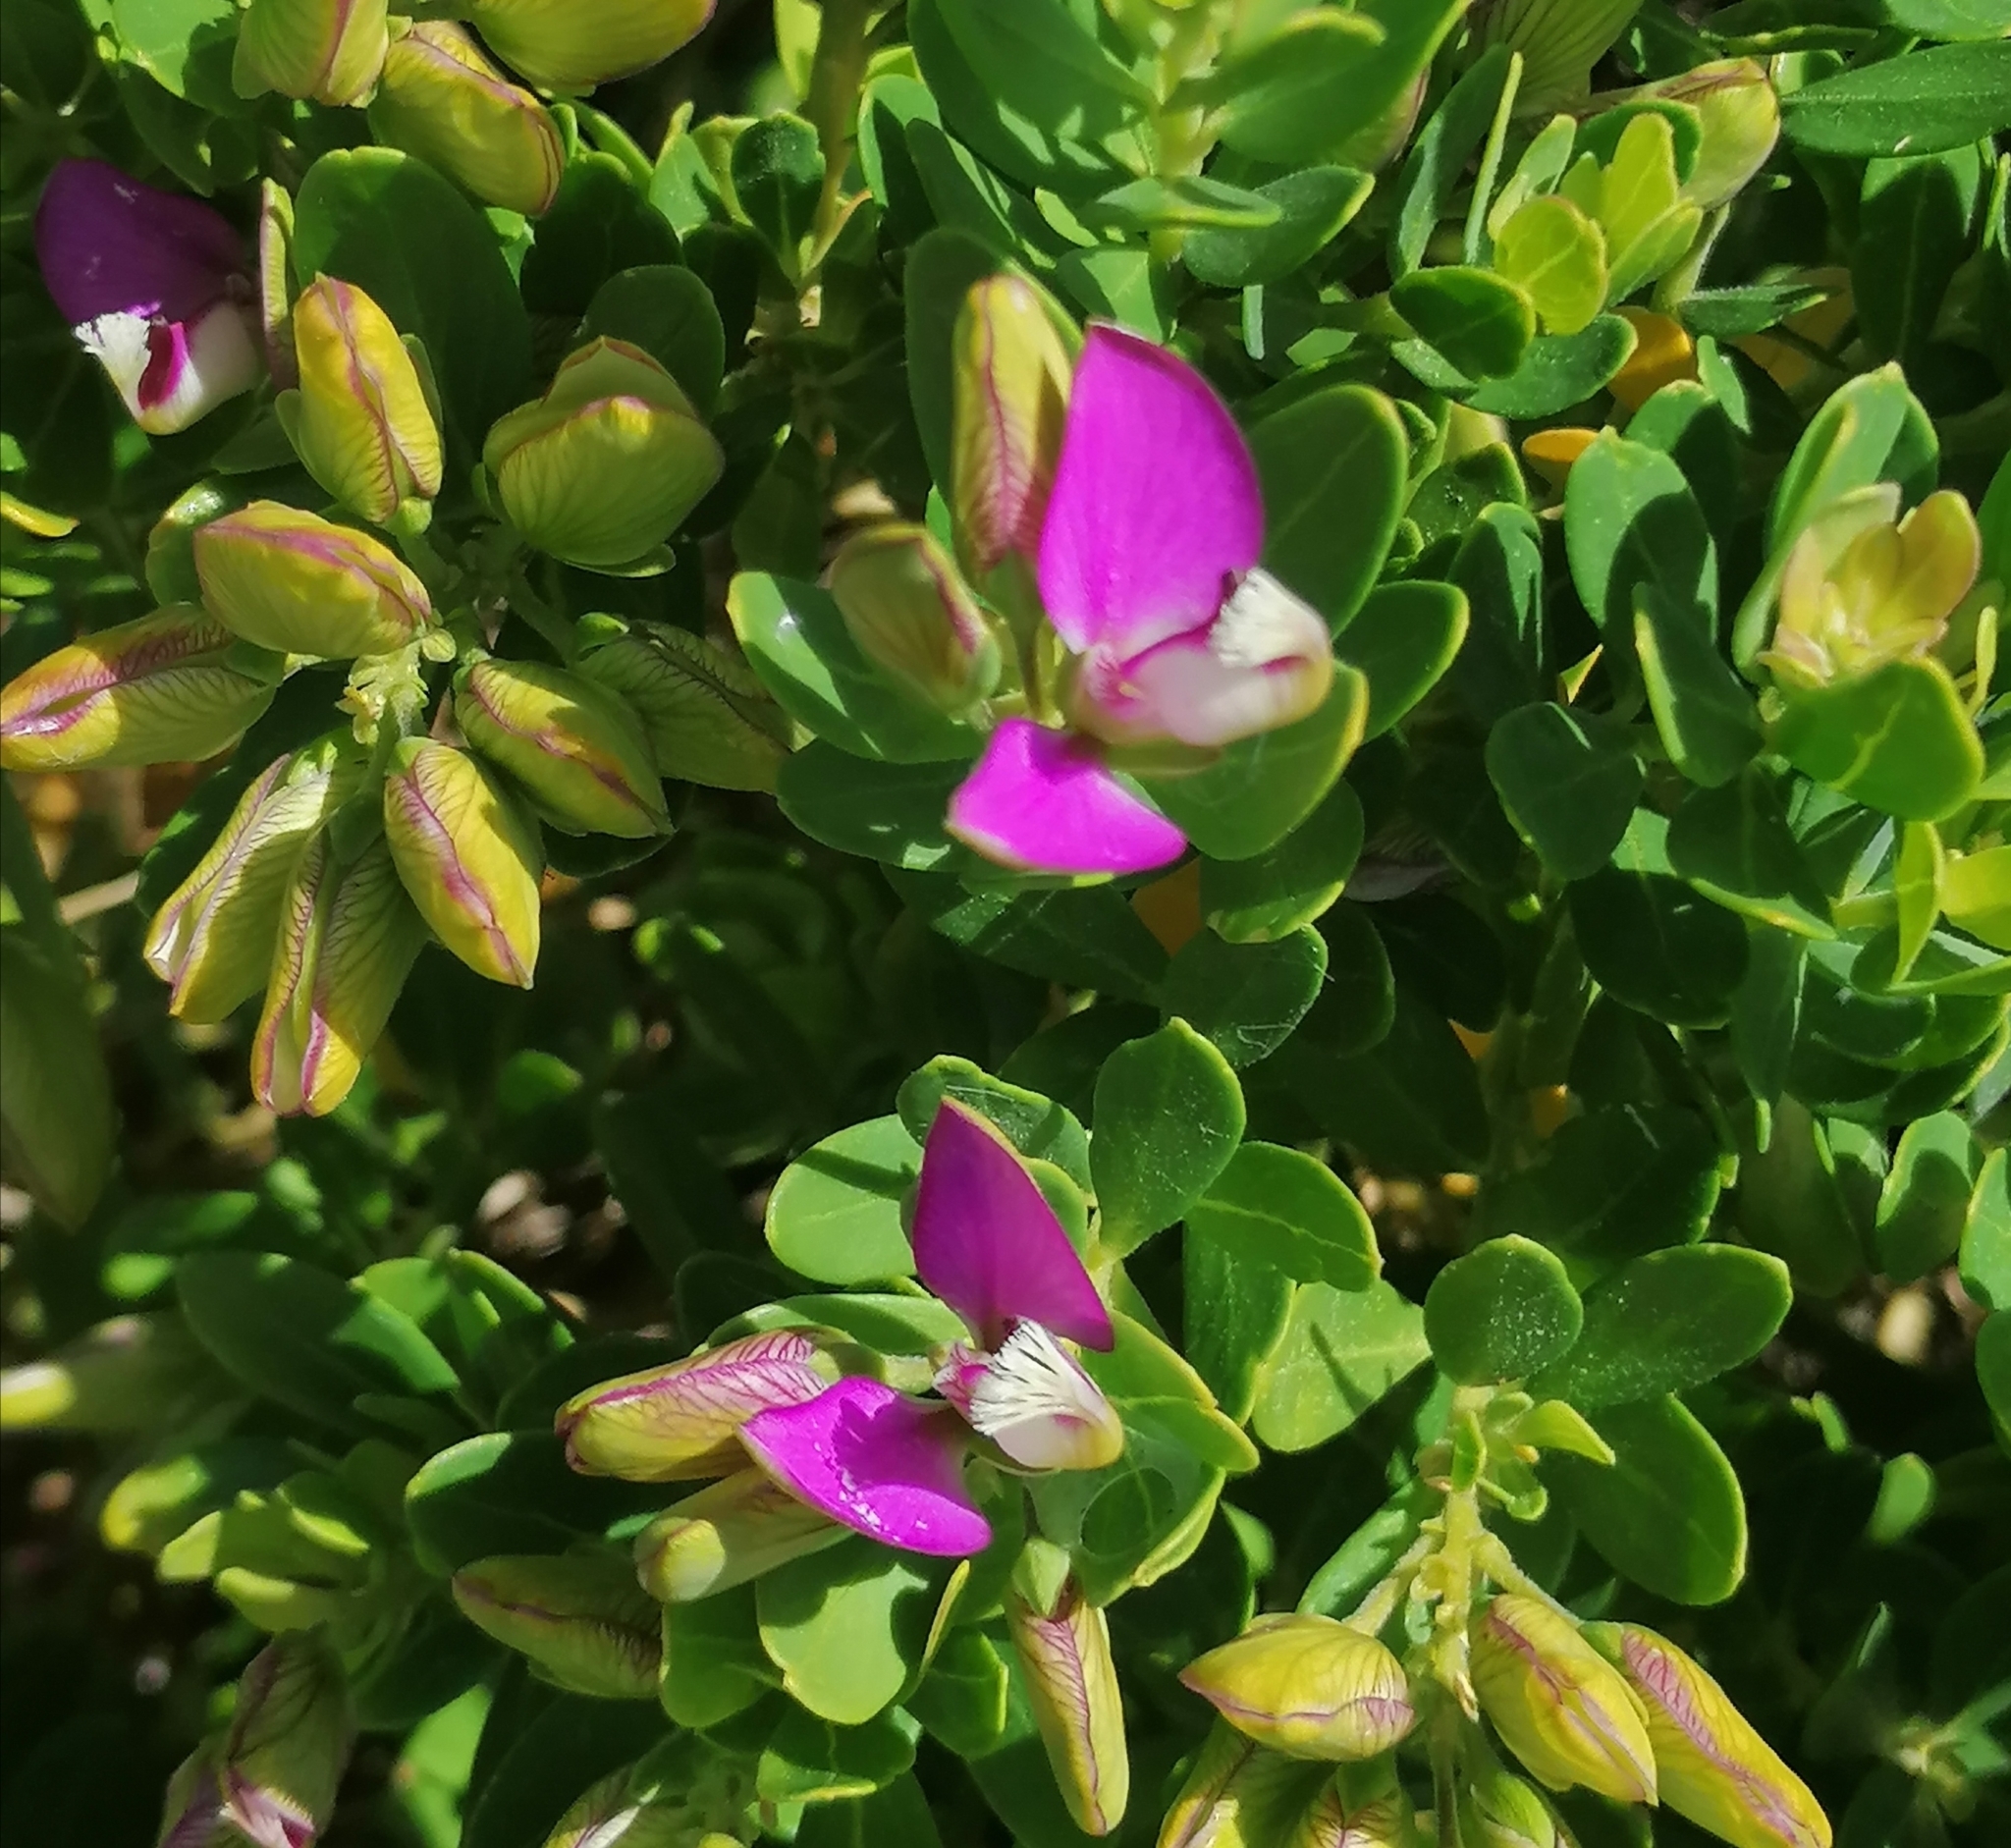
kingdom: Plantae
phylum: Tracheophyta
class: Magnoliopsida
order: Fabales
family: Polygalaceae
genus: Polygala
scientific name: Polygala myrtifolia
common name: Myrtle-leaf milkwort
